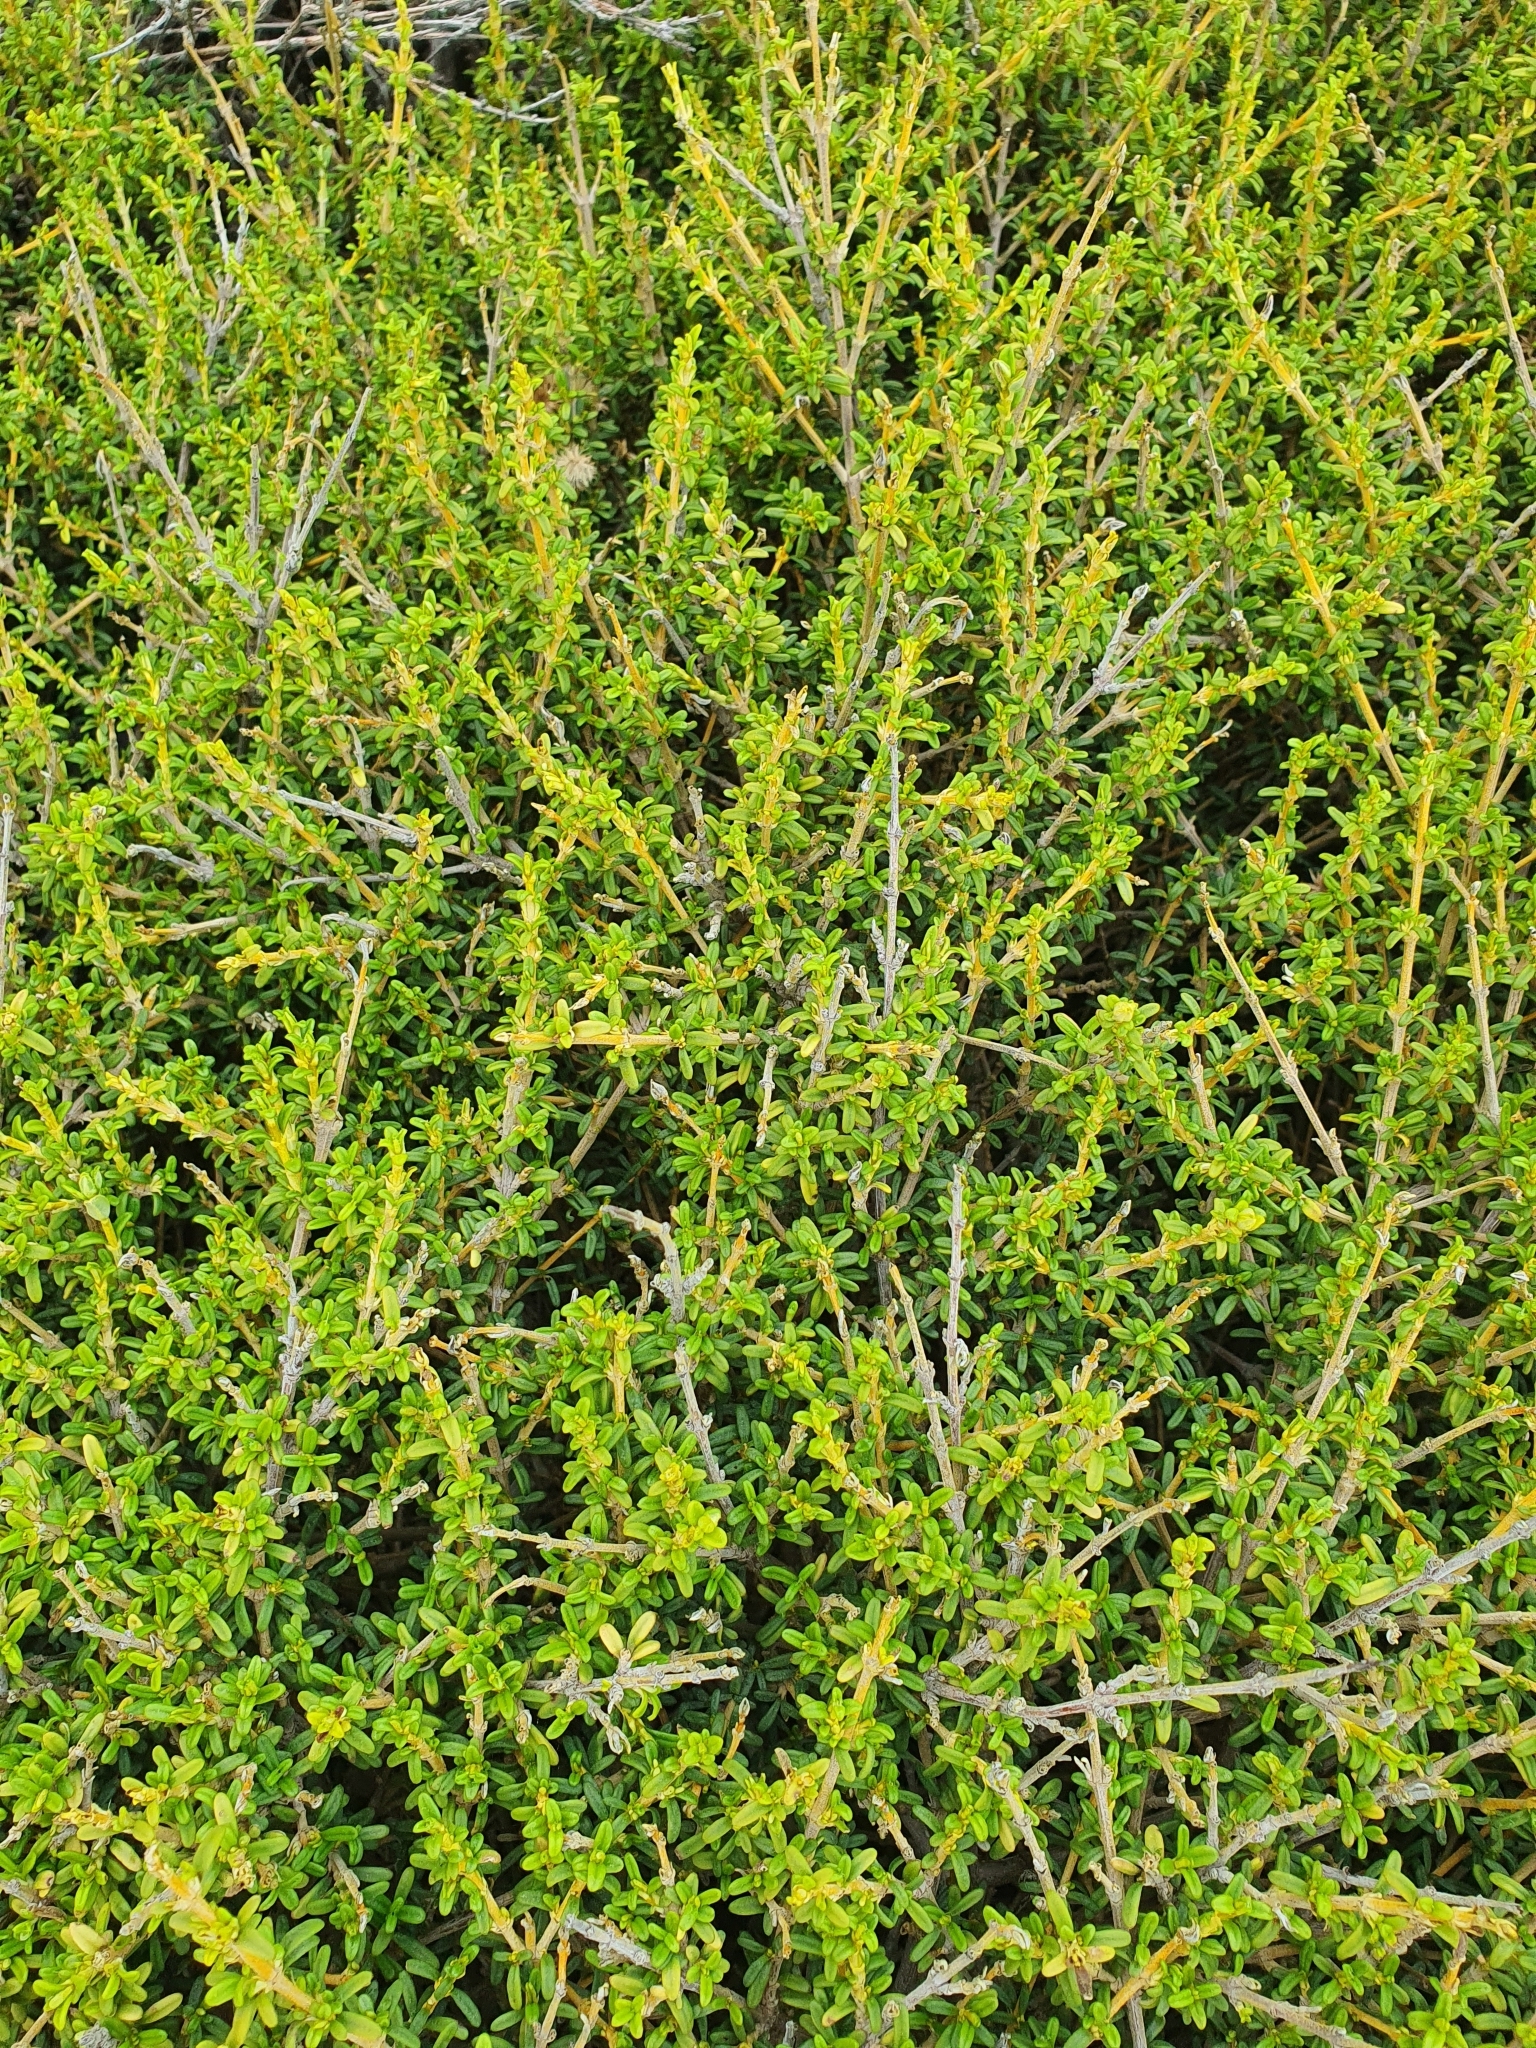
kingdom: Plantae
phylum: Tracheophyta
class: Magnoliopsida
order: Asterales
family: Asteraceae
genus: Olearia
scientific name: Olearia solandri
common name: Coastal daisybush
